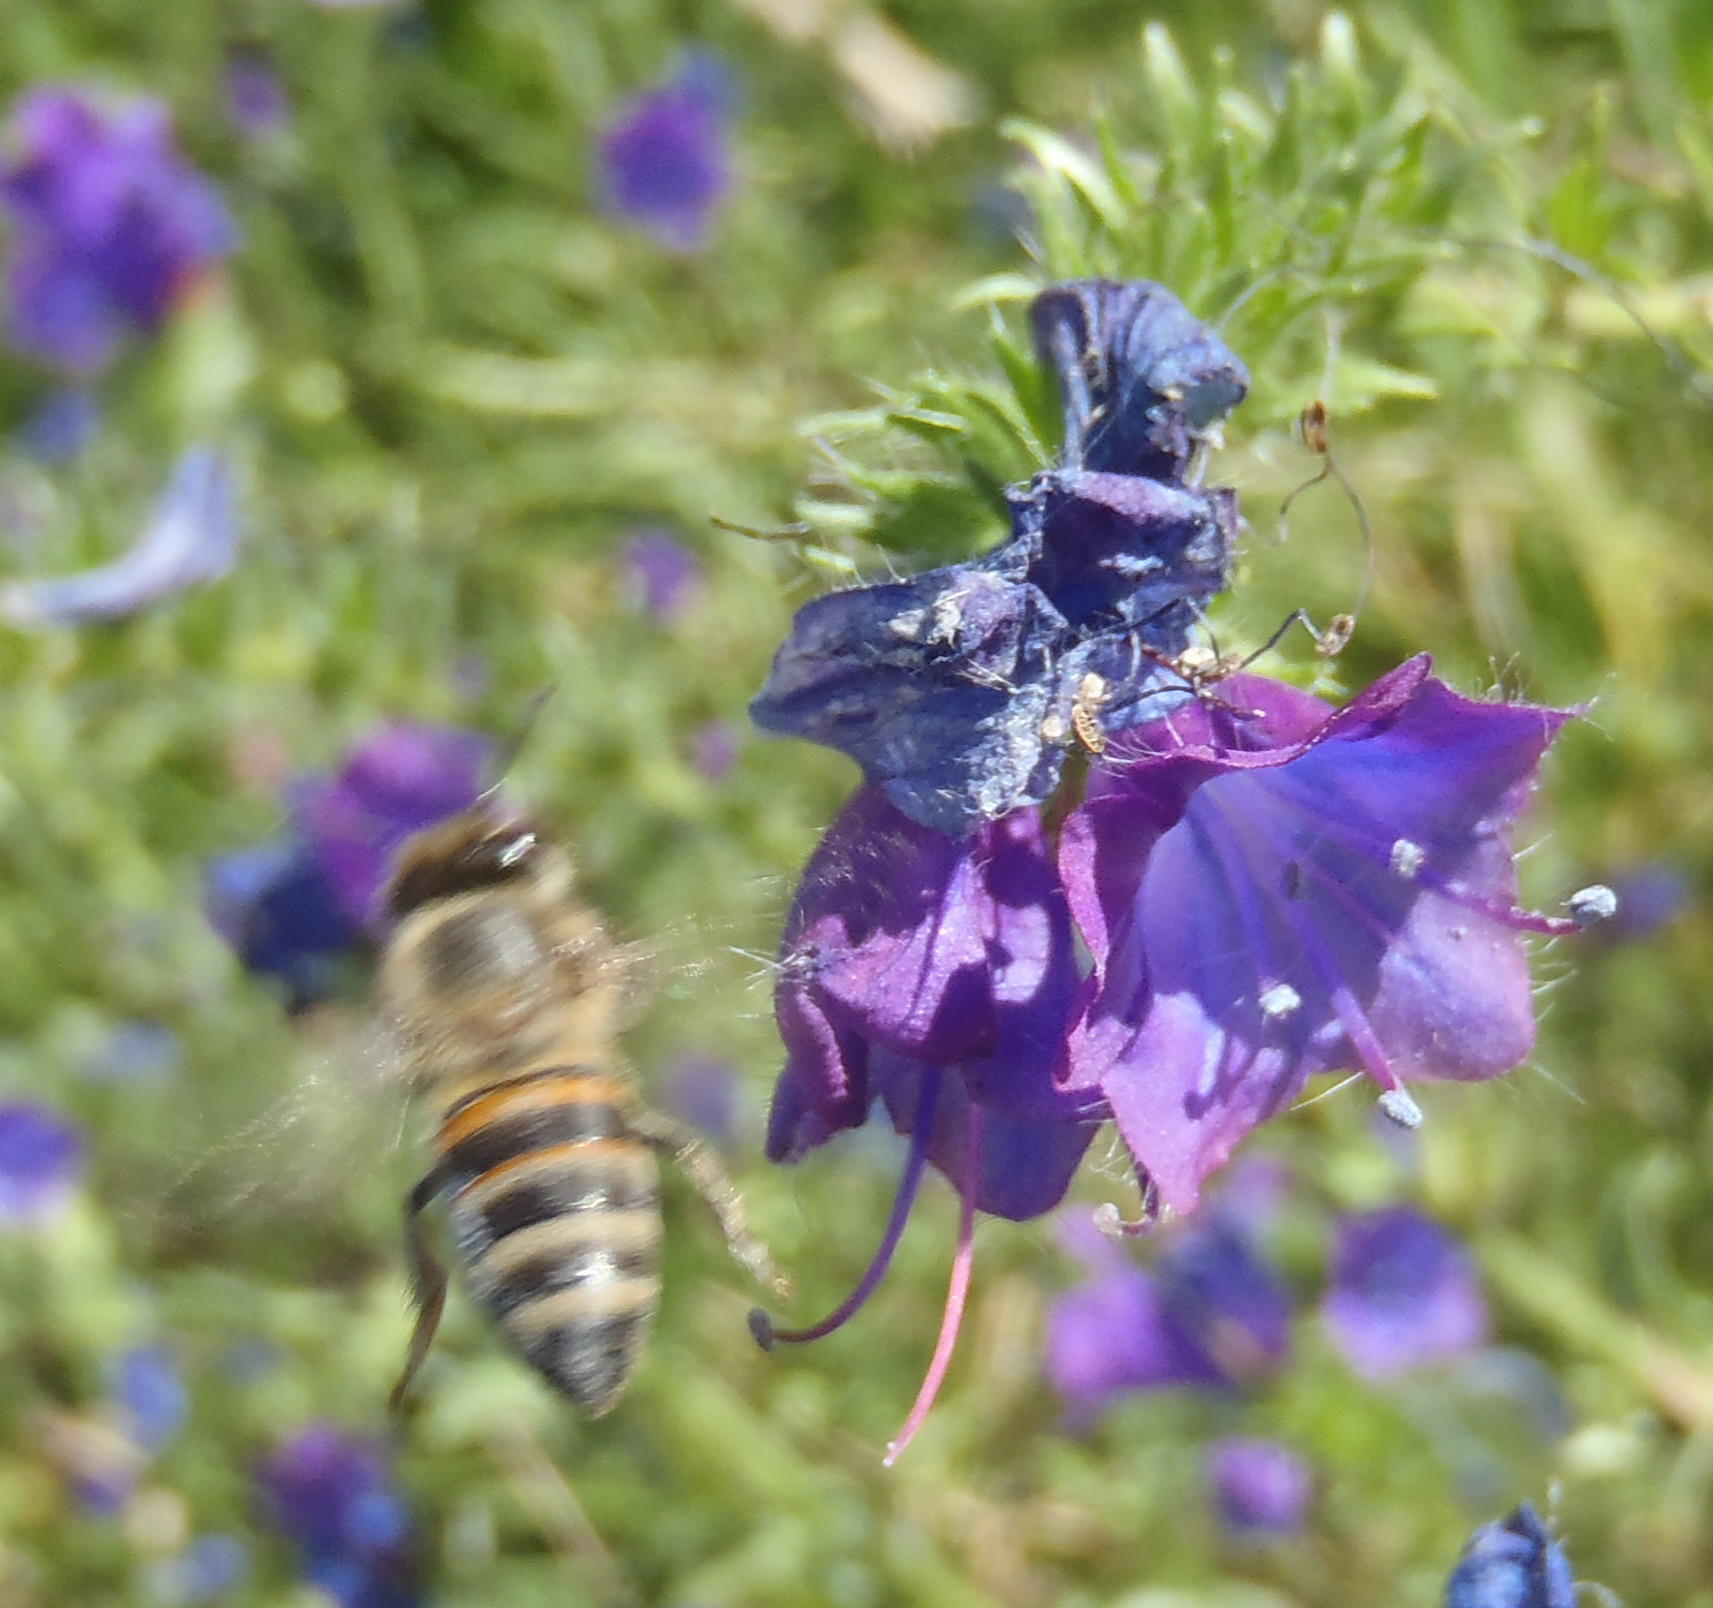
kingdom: Animalia
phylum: Arthropoda
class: Insecta
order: Hymenoptera
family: Apidae
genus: Apis
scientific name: Apis mellifera
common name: Honey bee
